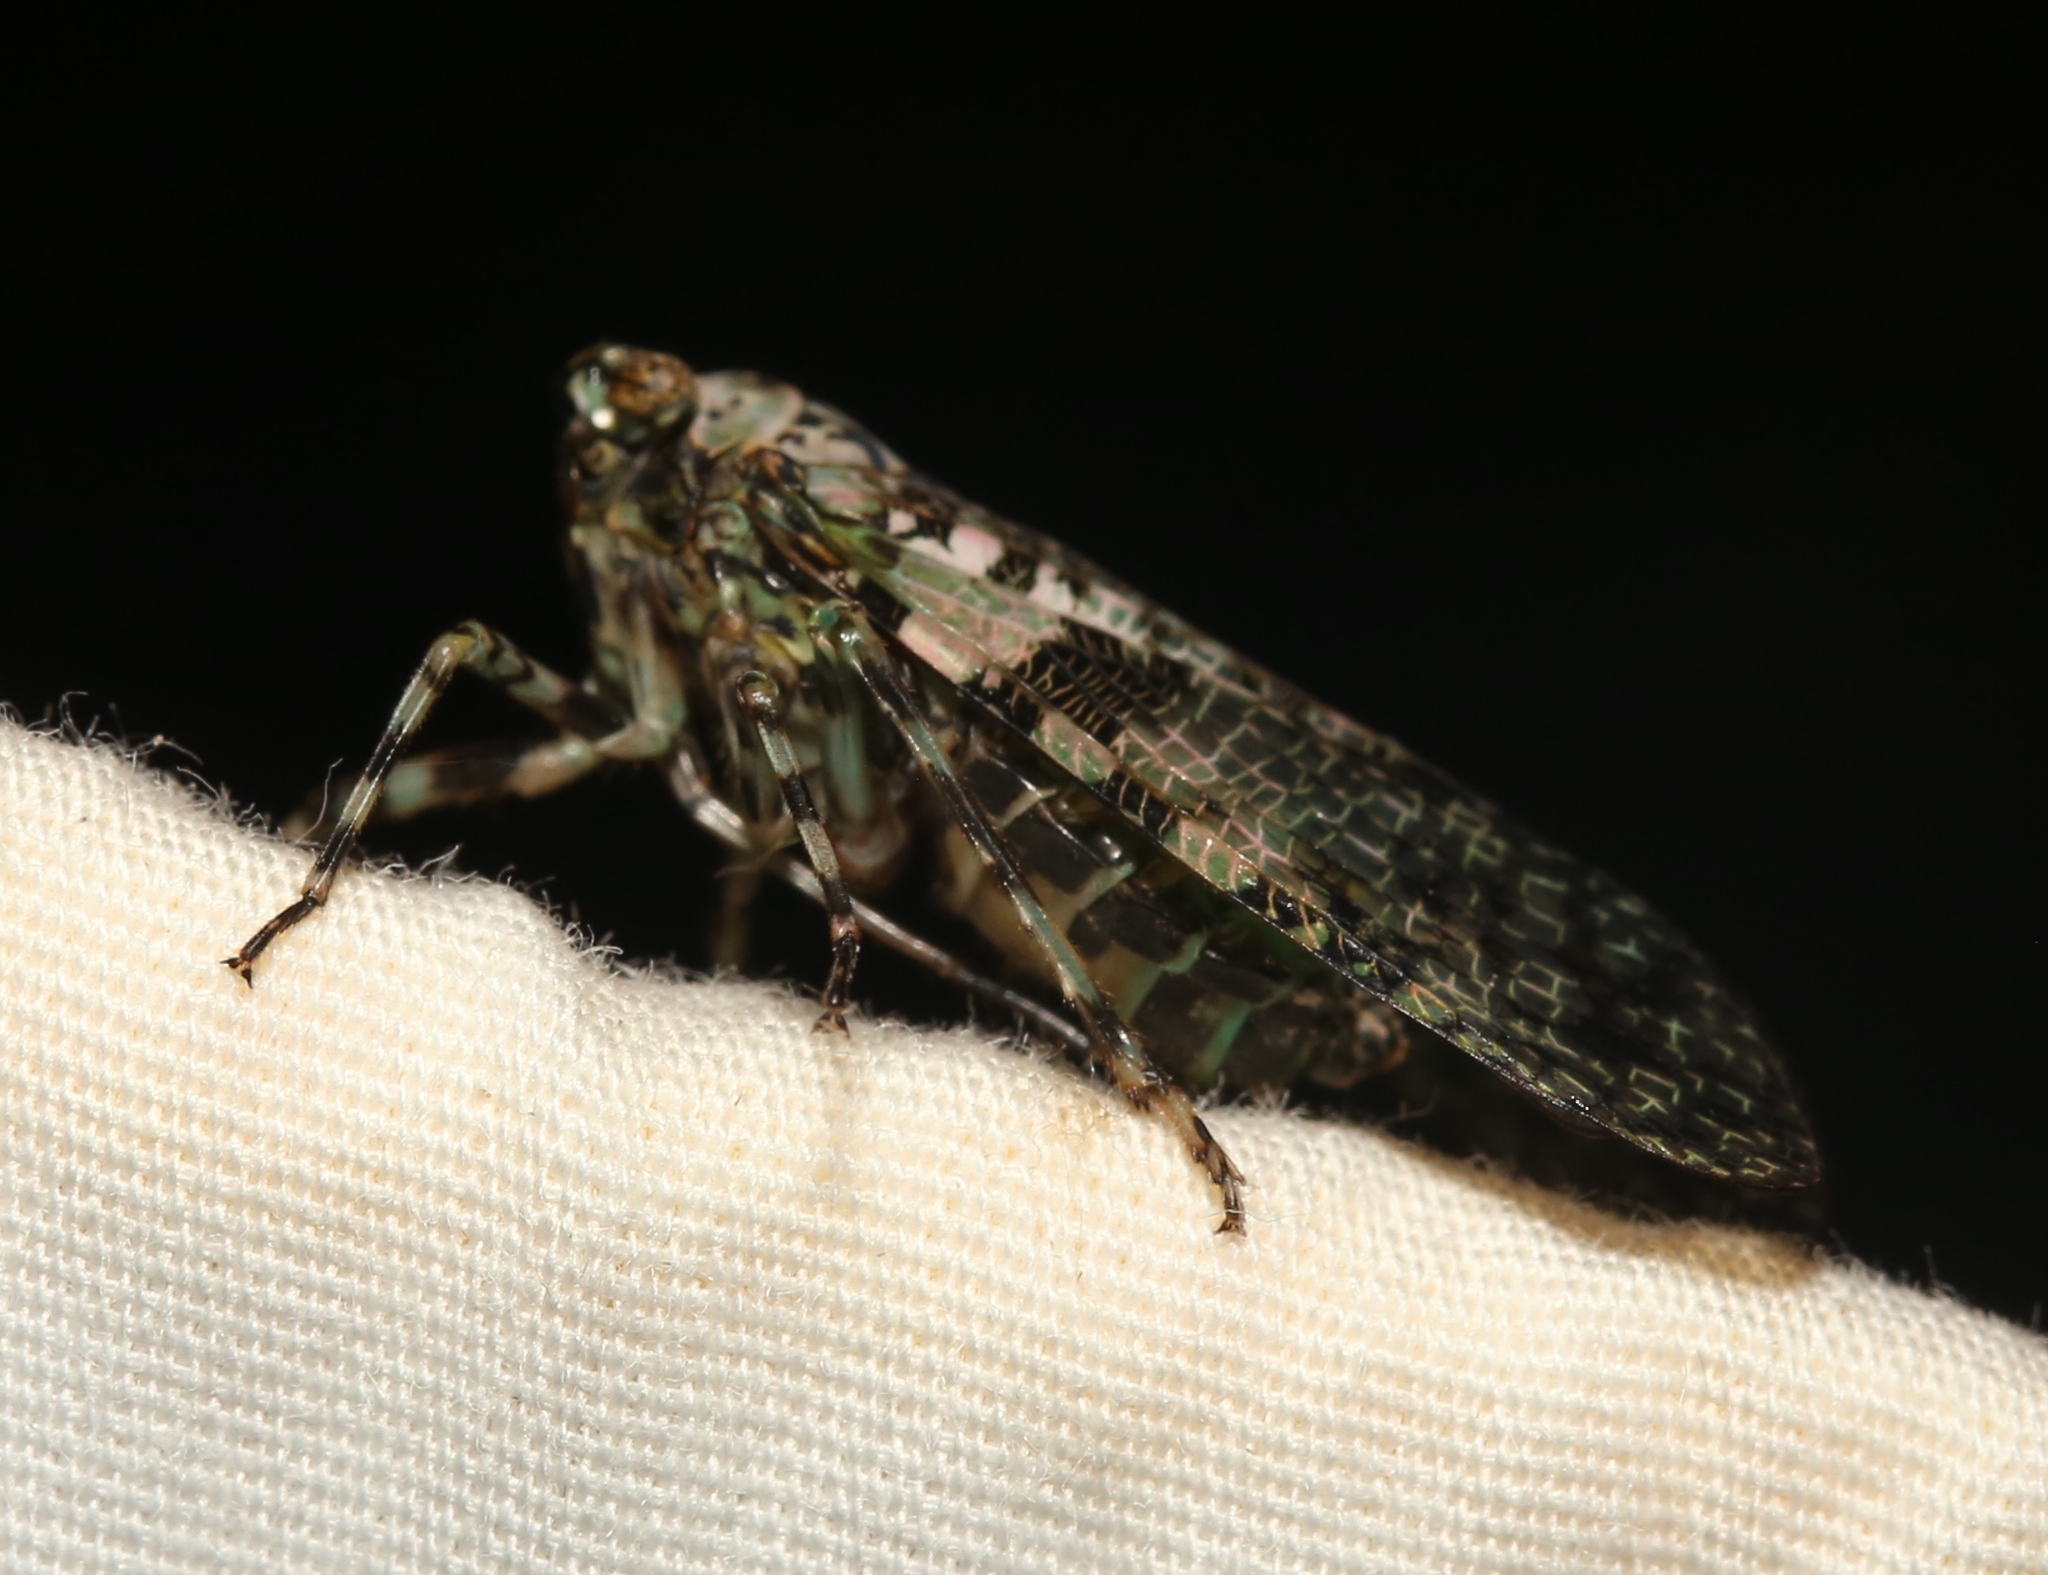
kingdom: Animalia
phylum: Arthropoda
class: Insecta
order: Hemiptera
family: Fulgoridae
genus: Calyptoproctus
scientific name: Calyptoproctus marmoratus
